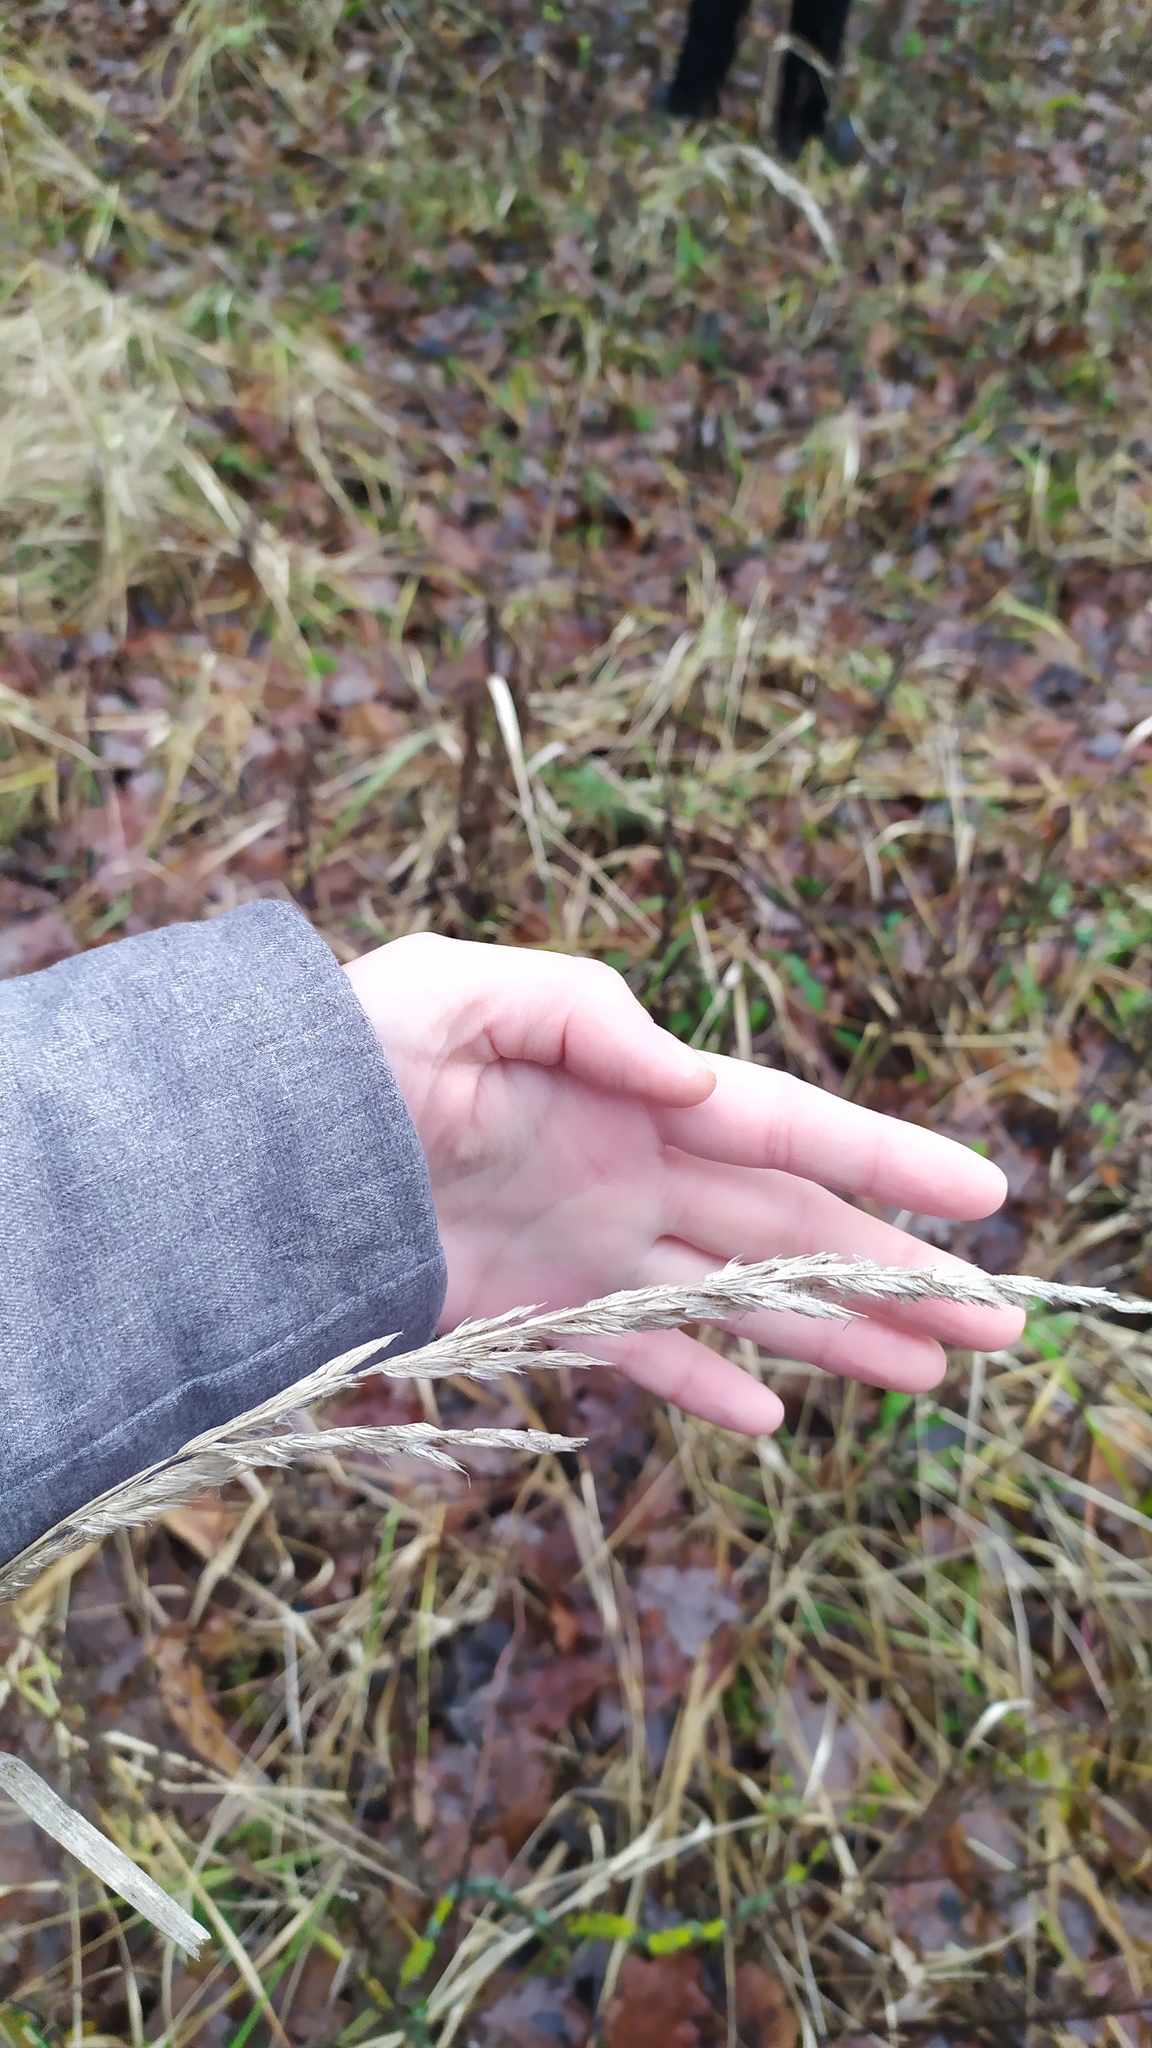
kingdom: Plantae
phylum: Tracheophyta
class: Liliopsida
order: Poales
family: Poaceae
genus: Calamagrostis
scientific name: Calamagrostis epigejos
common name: Wood small-reed
